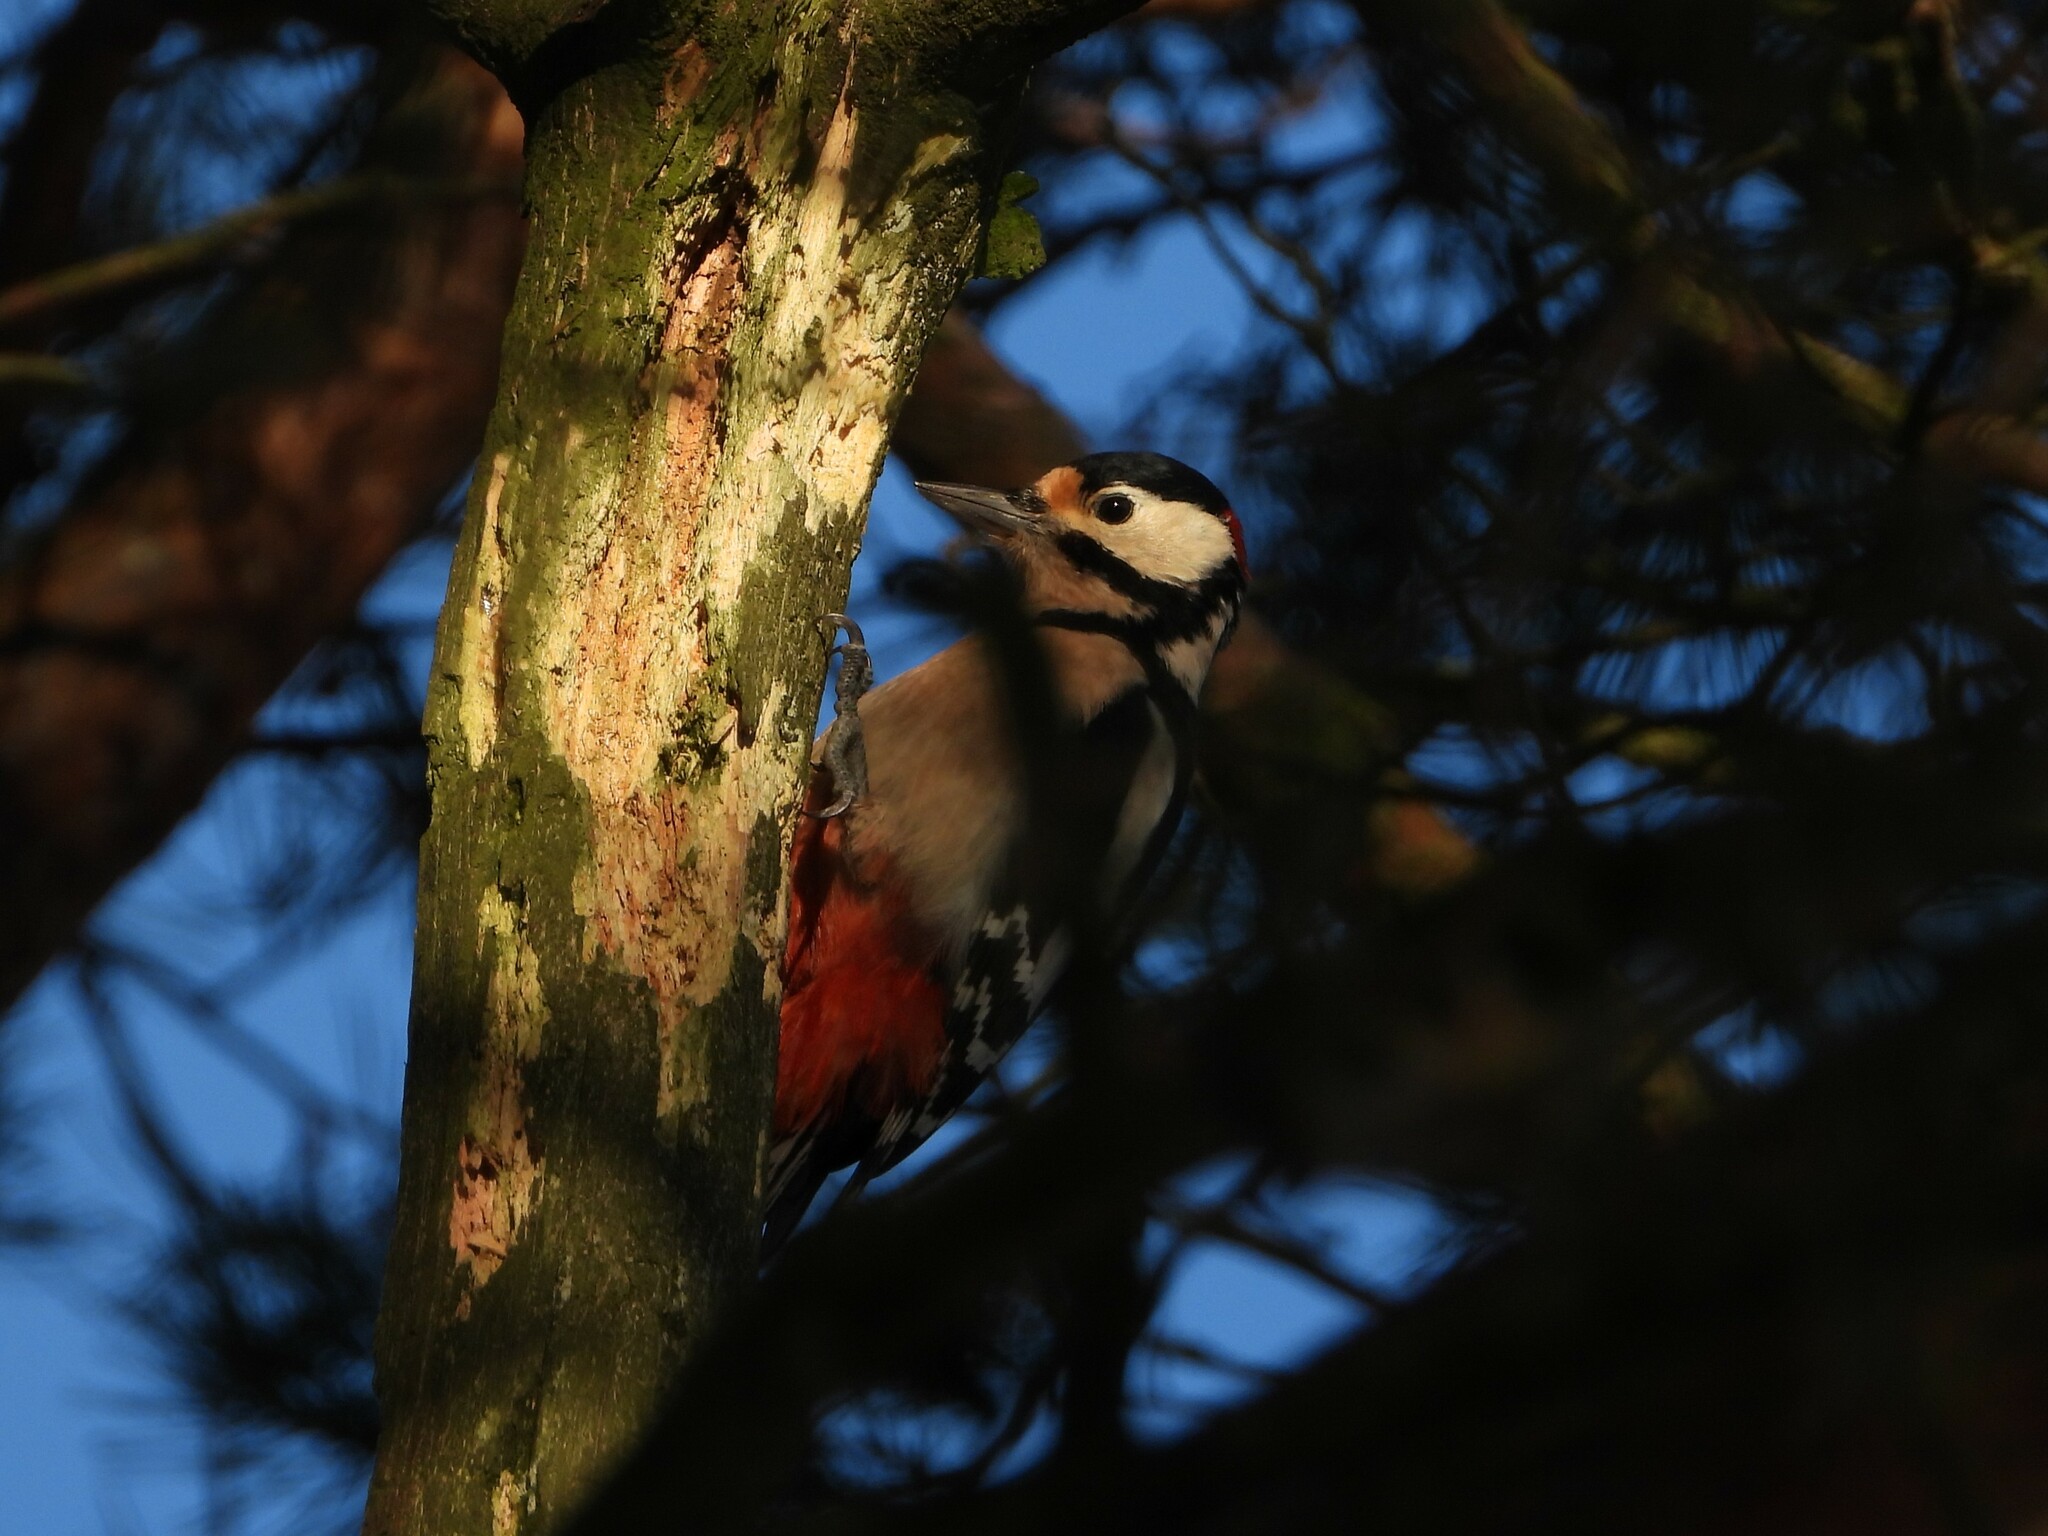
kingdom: Animalia
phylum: Chordata
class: Aves
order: Piciformes
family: Picidae
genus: Dendrocopos
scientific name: Dendrocopos major
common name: Great spotted woodpecker
